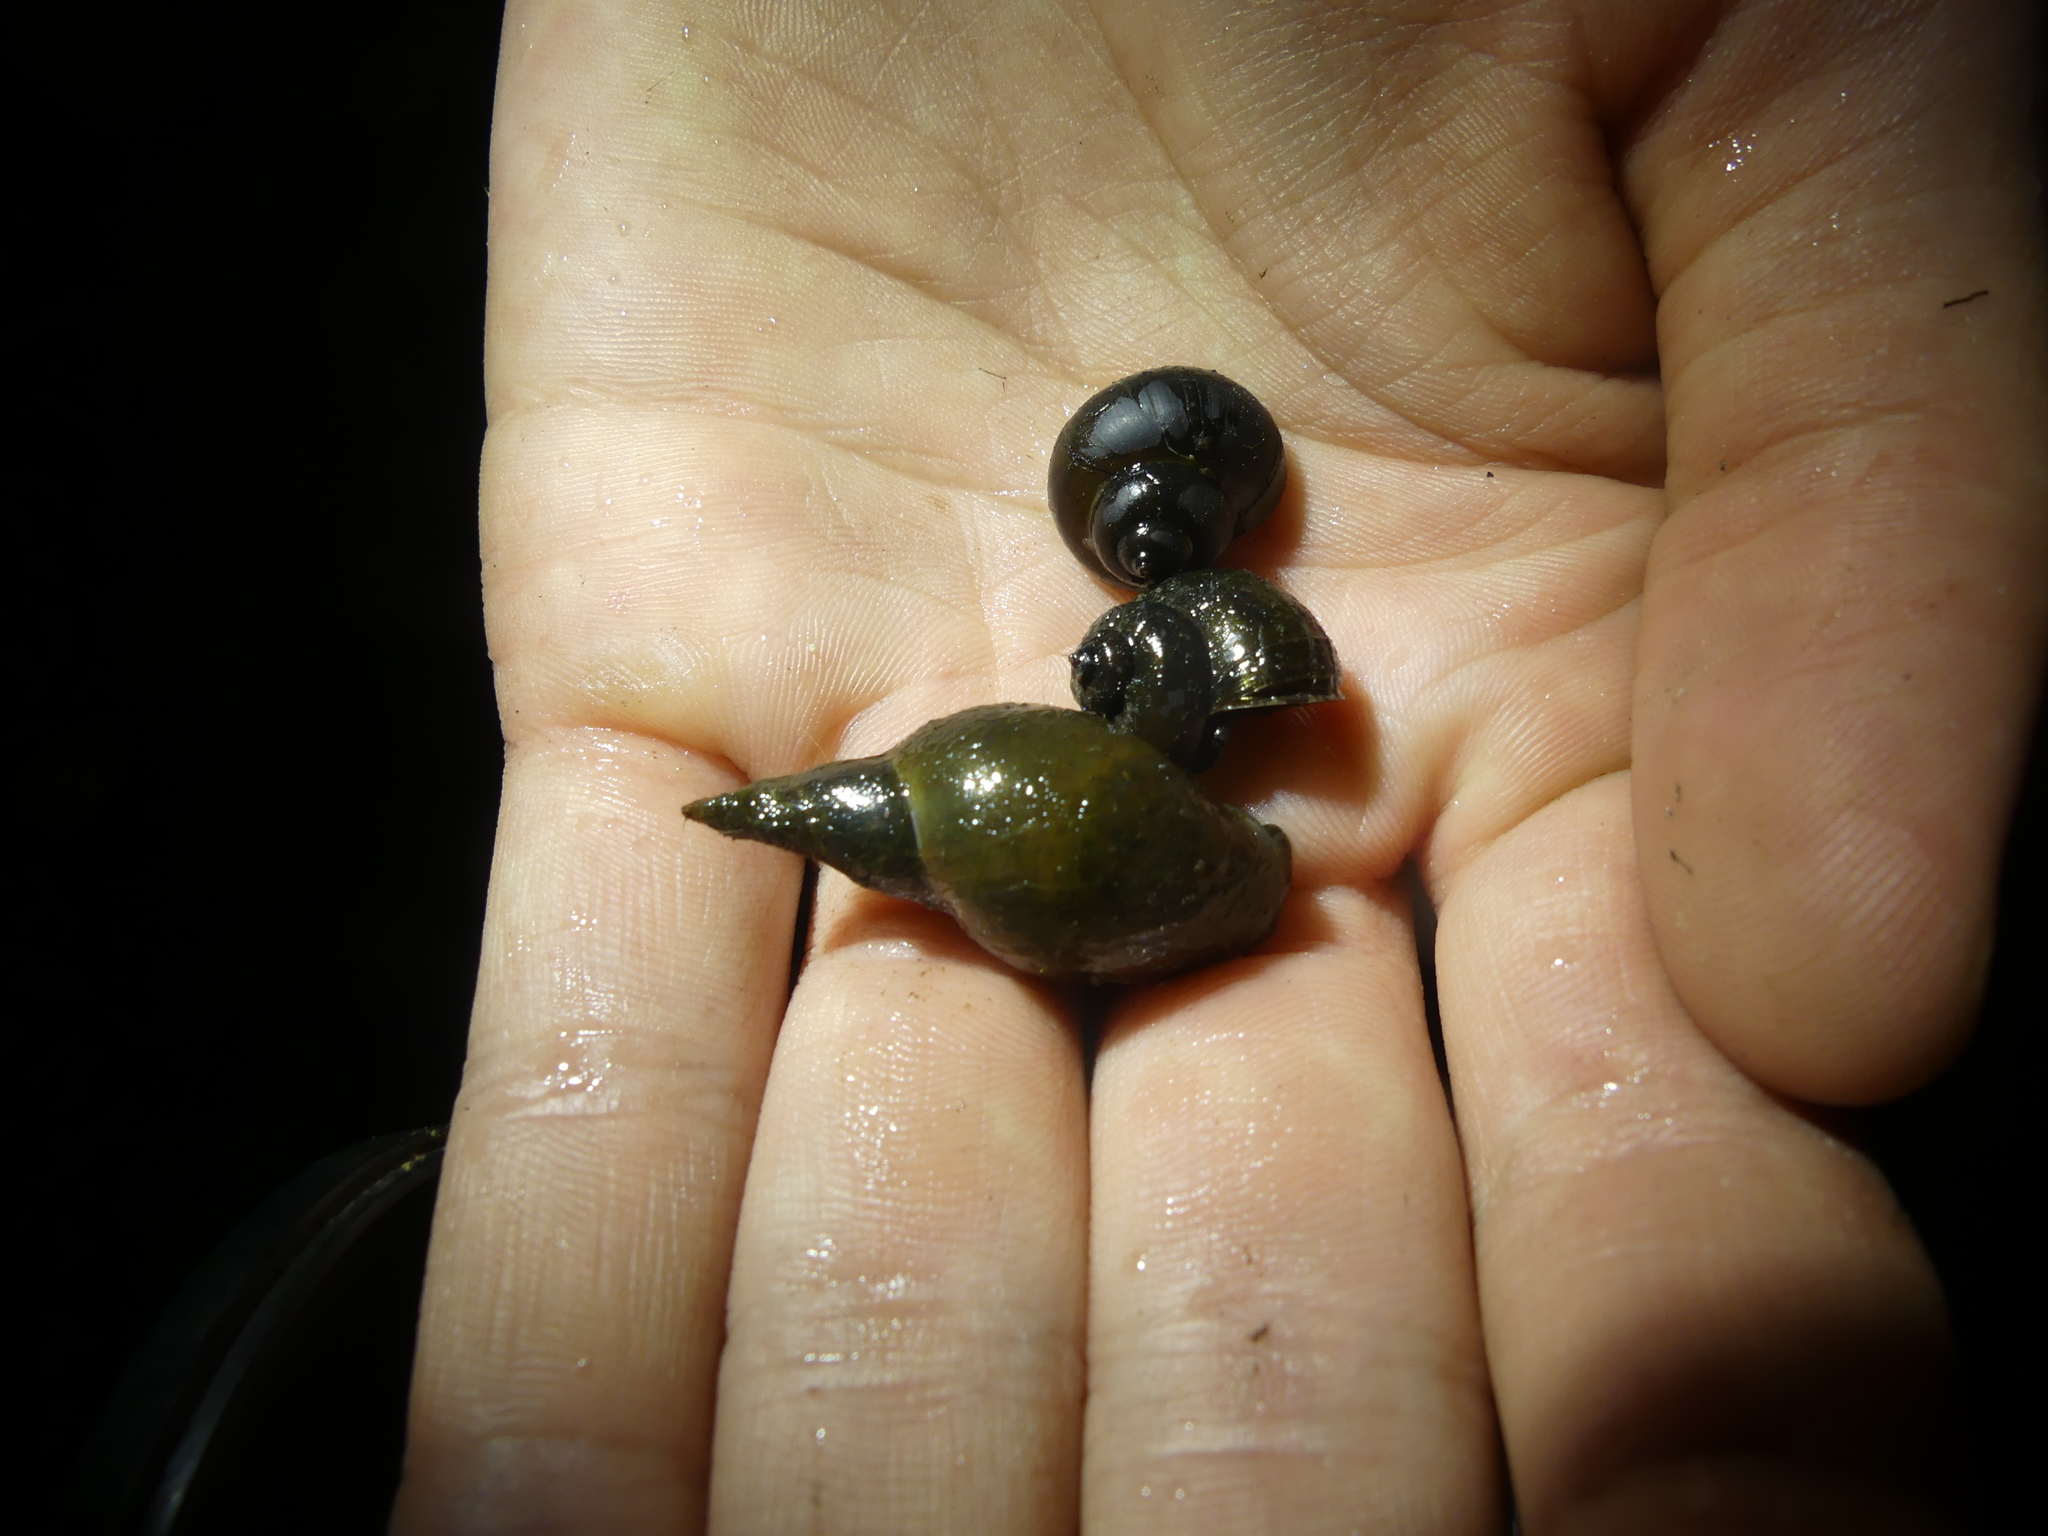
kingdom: Animalia
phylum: Mollusca
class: Gastropoda
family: Lymnaeidae
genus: Lymnaea
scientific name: Lymnaea stagnalis
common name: Great pond snail
